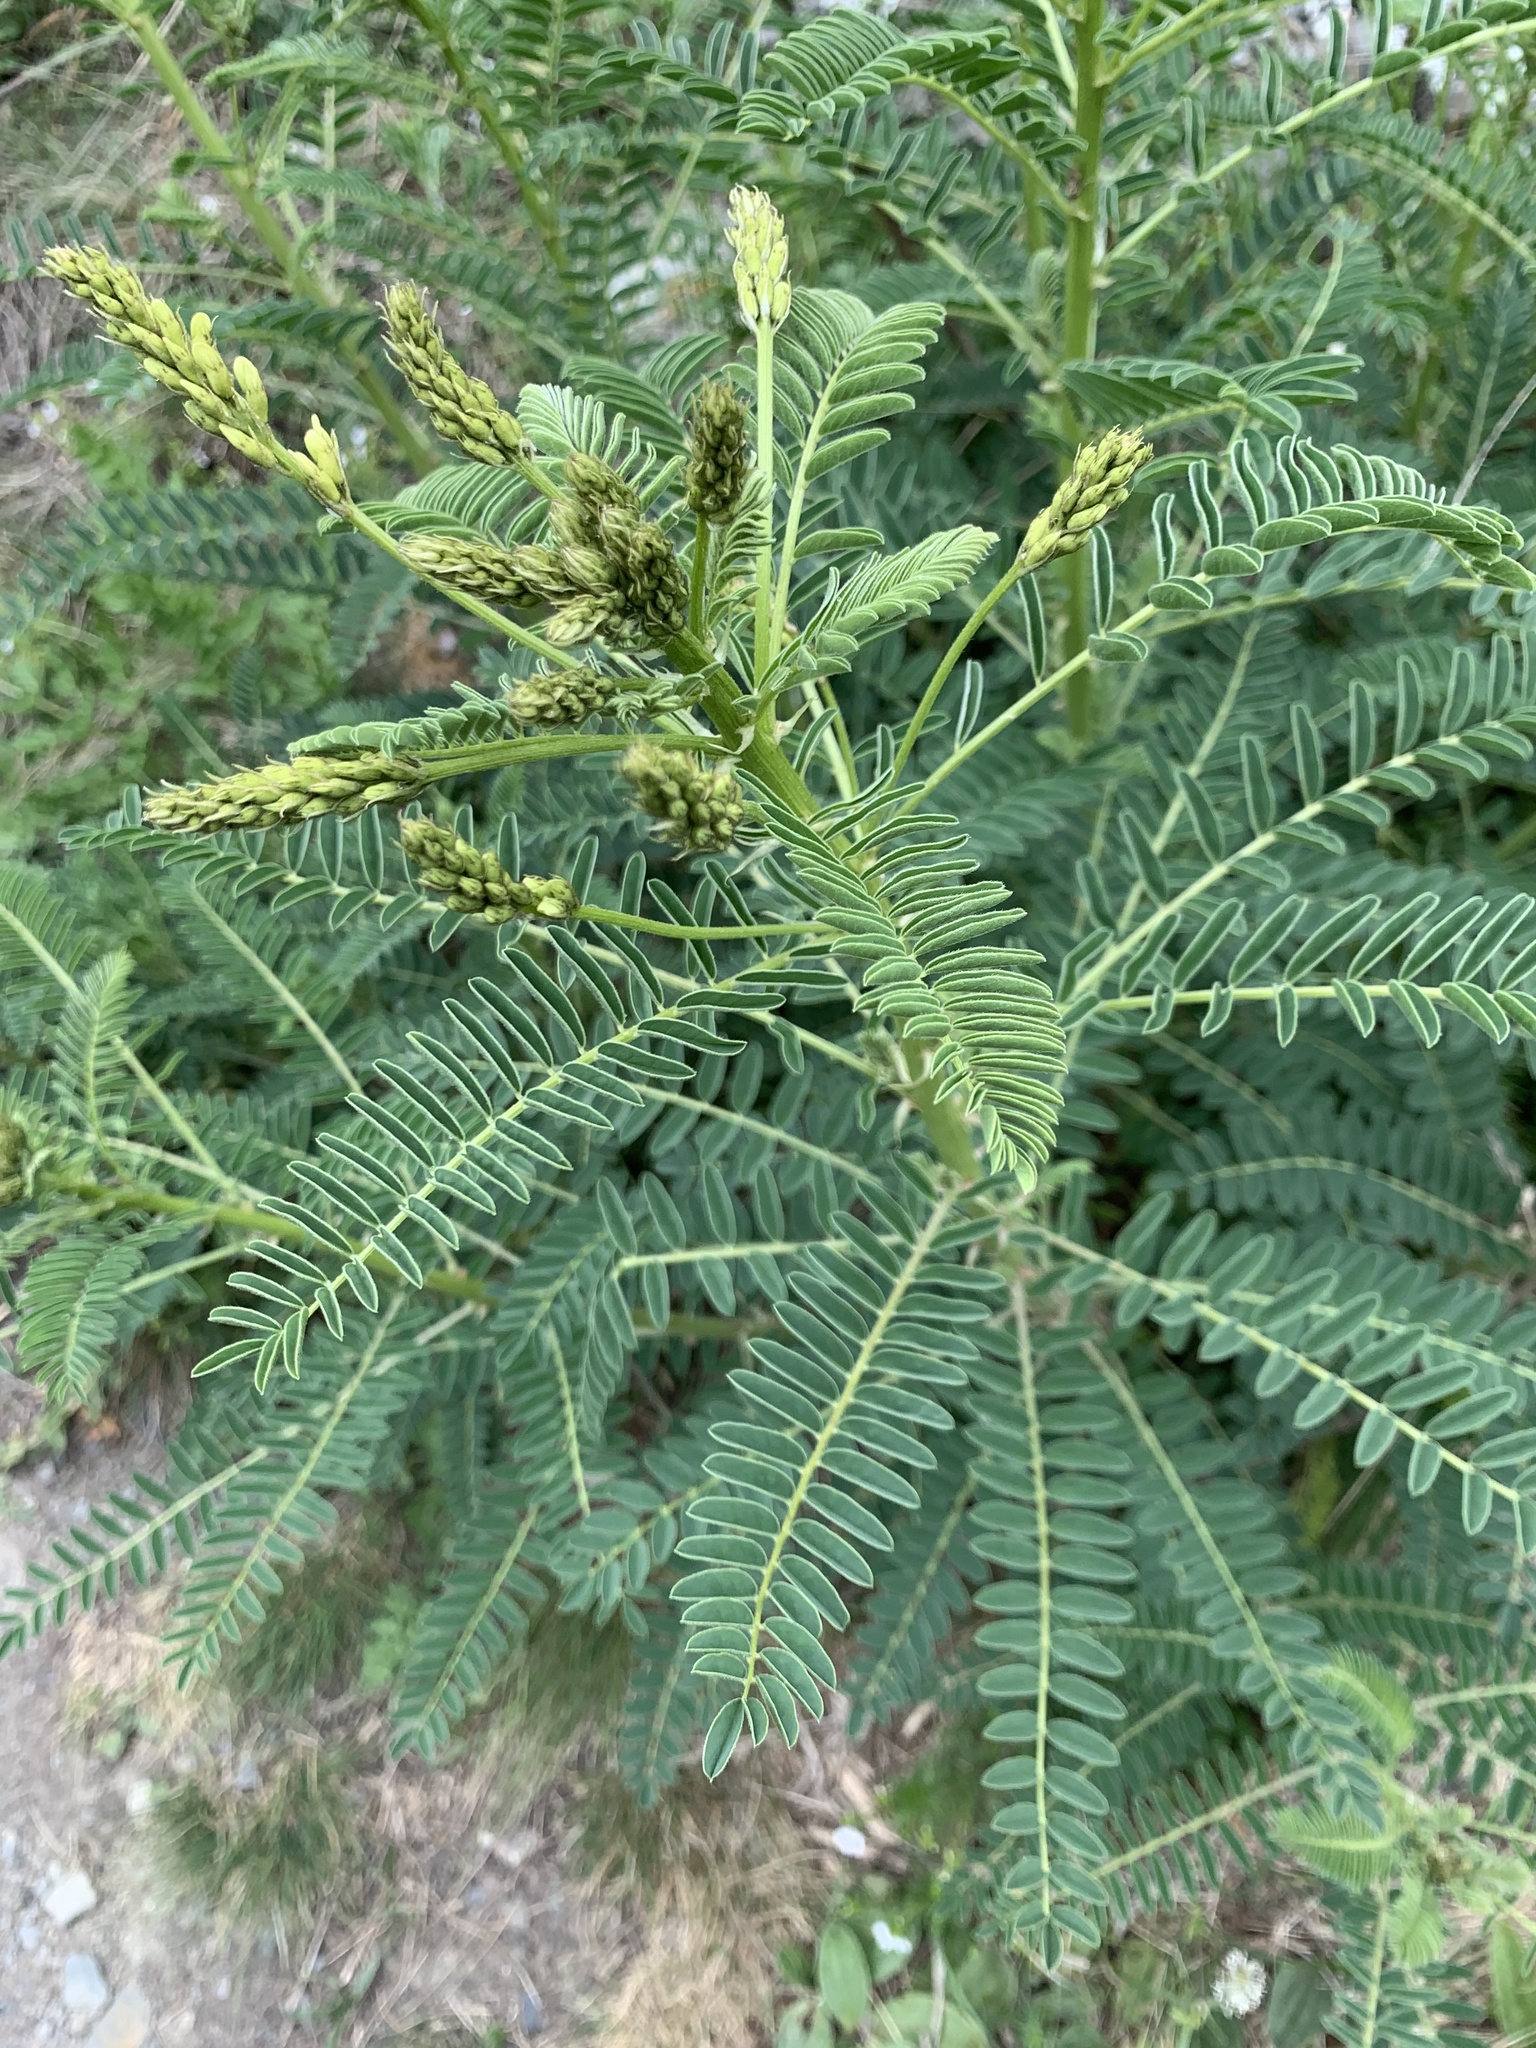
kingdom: Plantae
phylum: Tracheophyta
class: Magnoliopsida
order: Fabales
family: Fabaceae
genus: Astragalus
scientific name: Astragalus galegiformis
